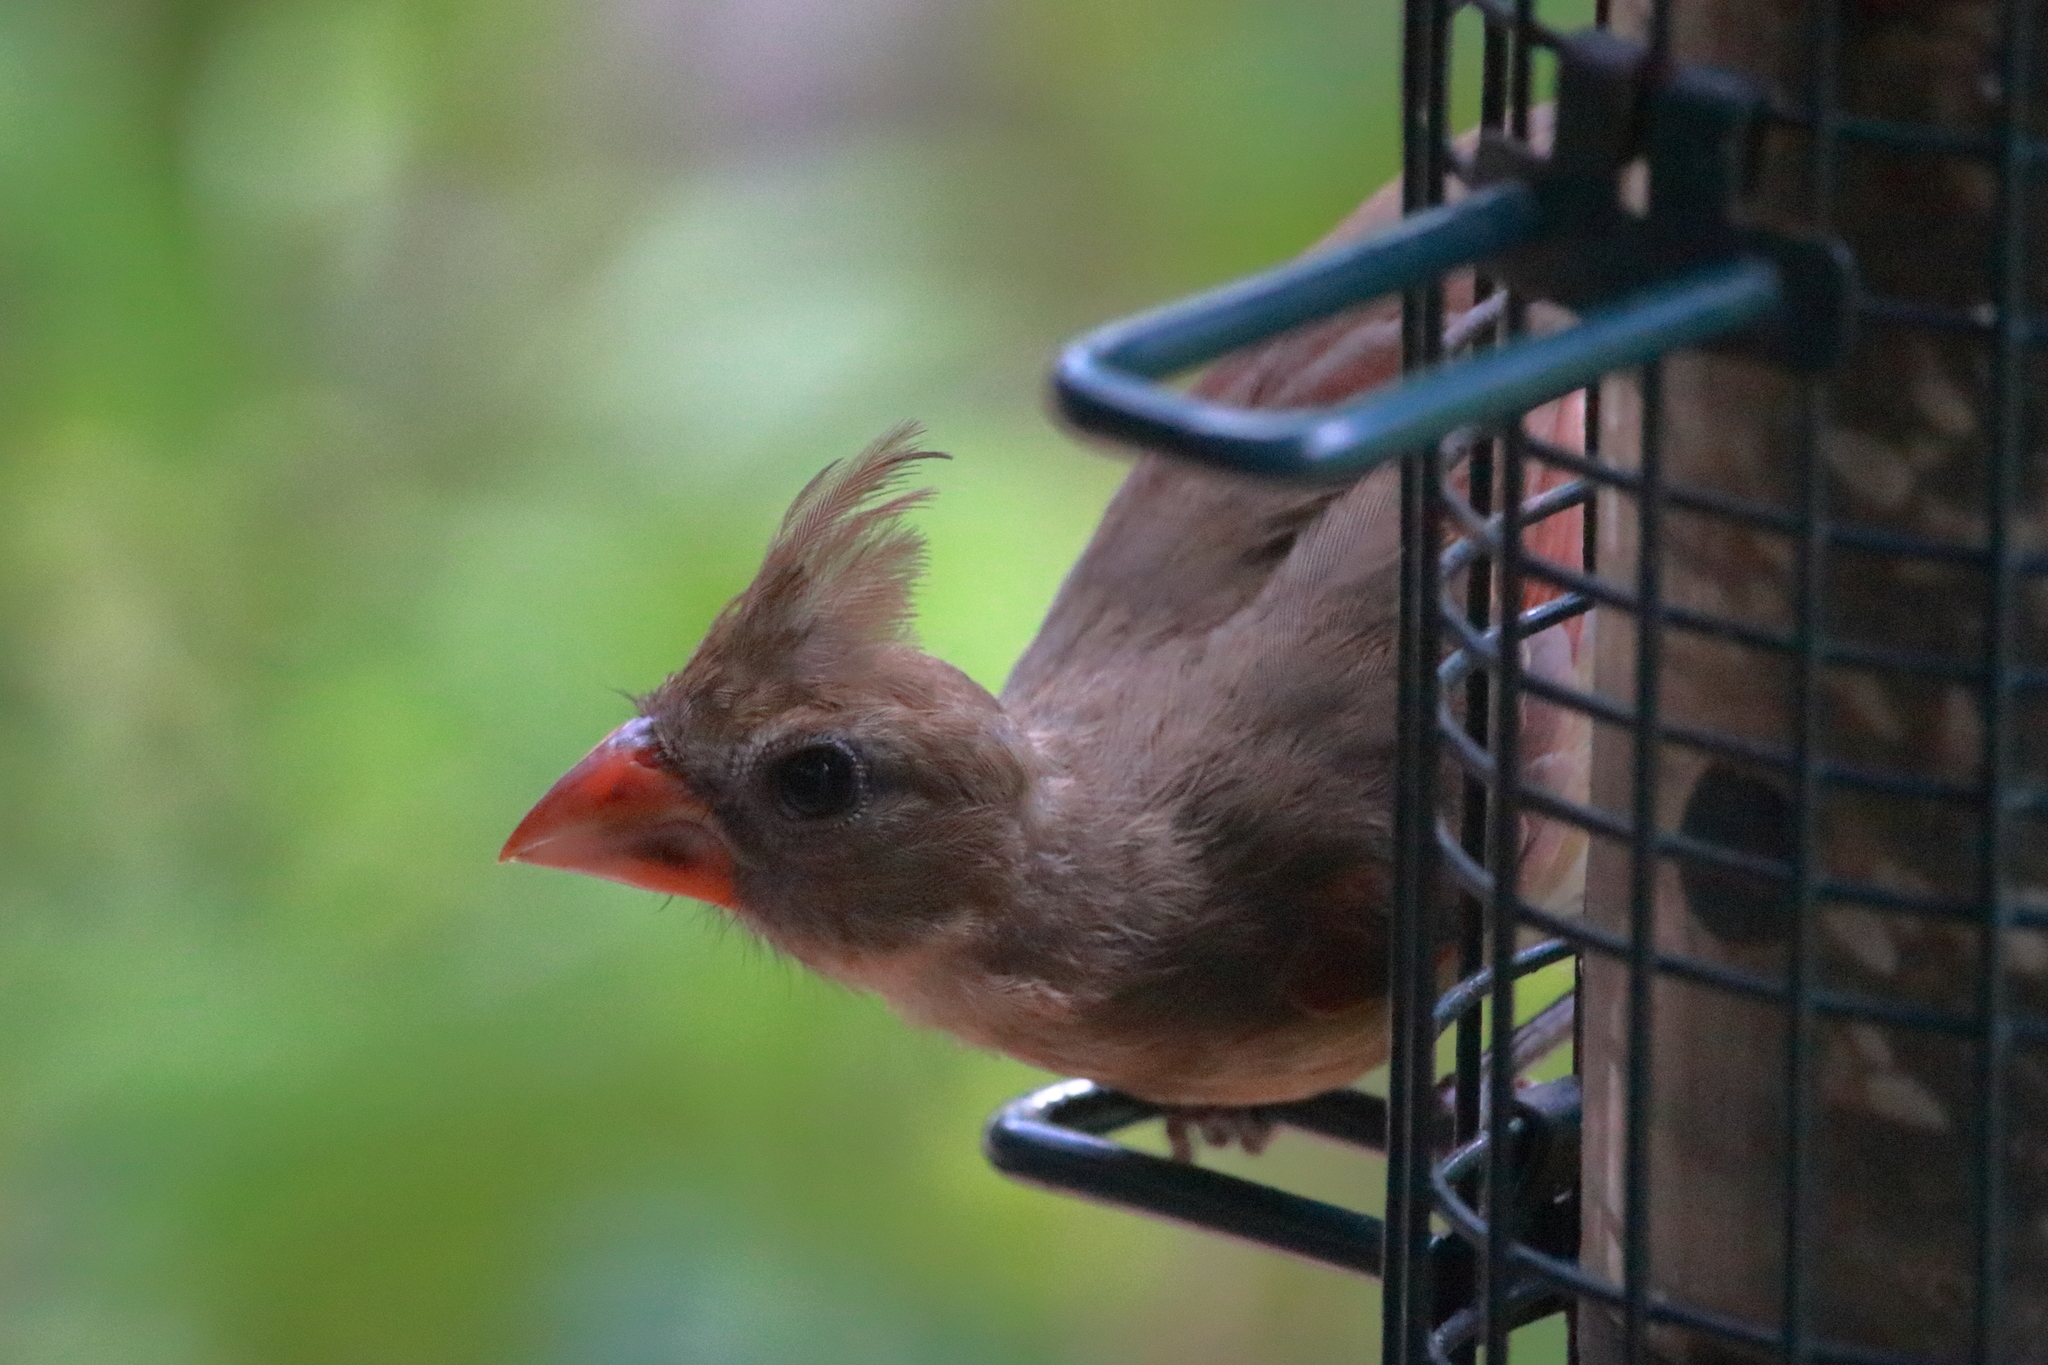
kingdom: Animalia
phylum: Chordata
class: Aves
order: Passeriformes
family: Cardinalidae
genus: Cardinalis
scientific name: Cardinalis cardinalis
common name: Northern cardinal
